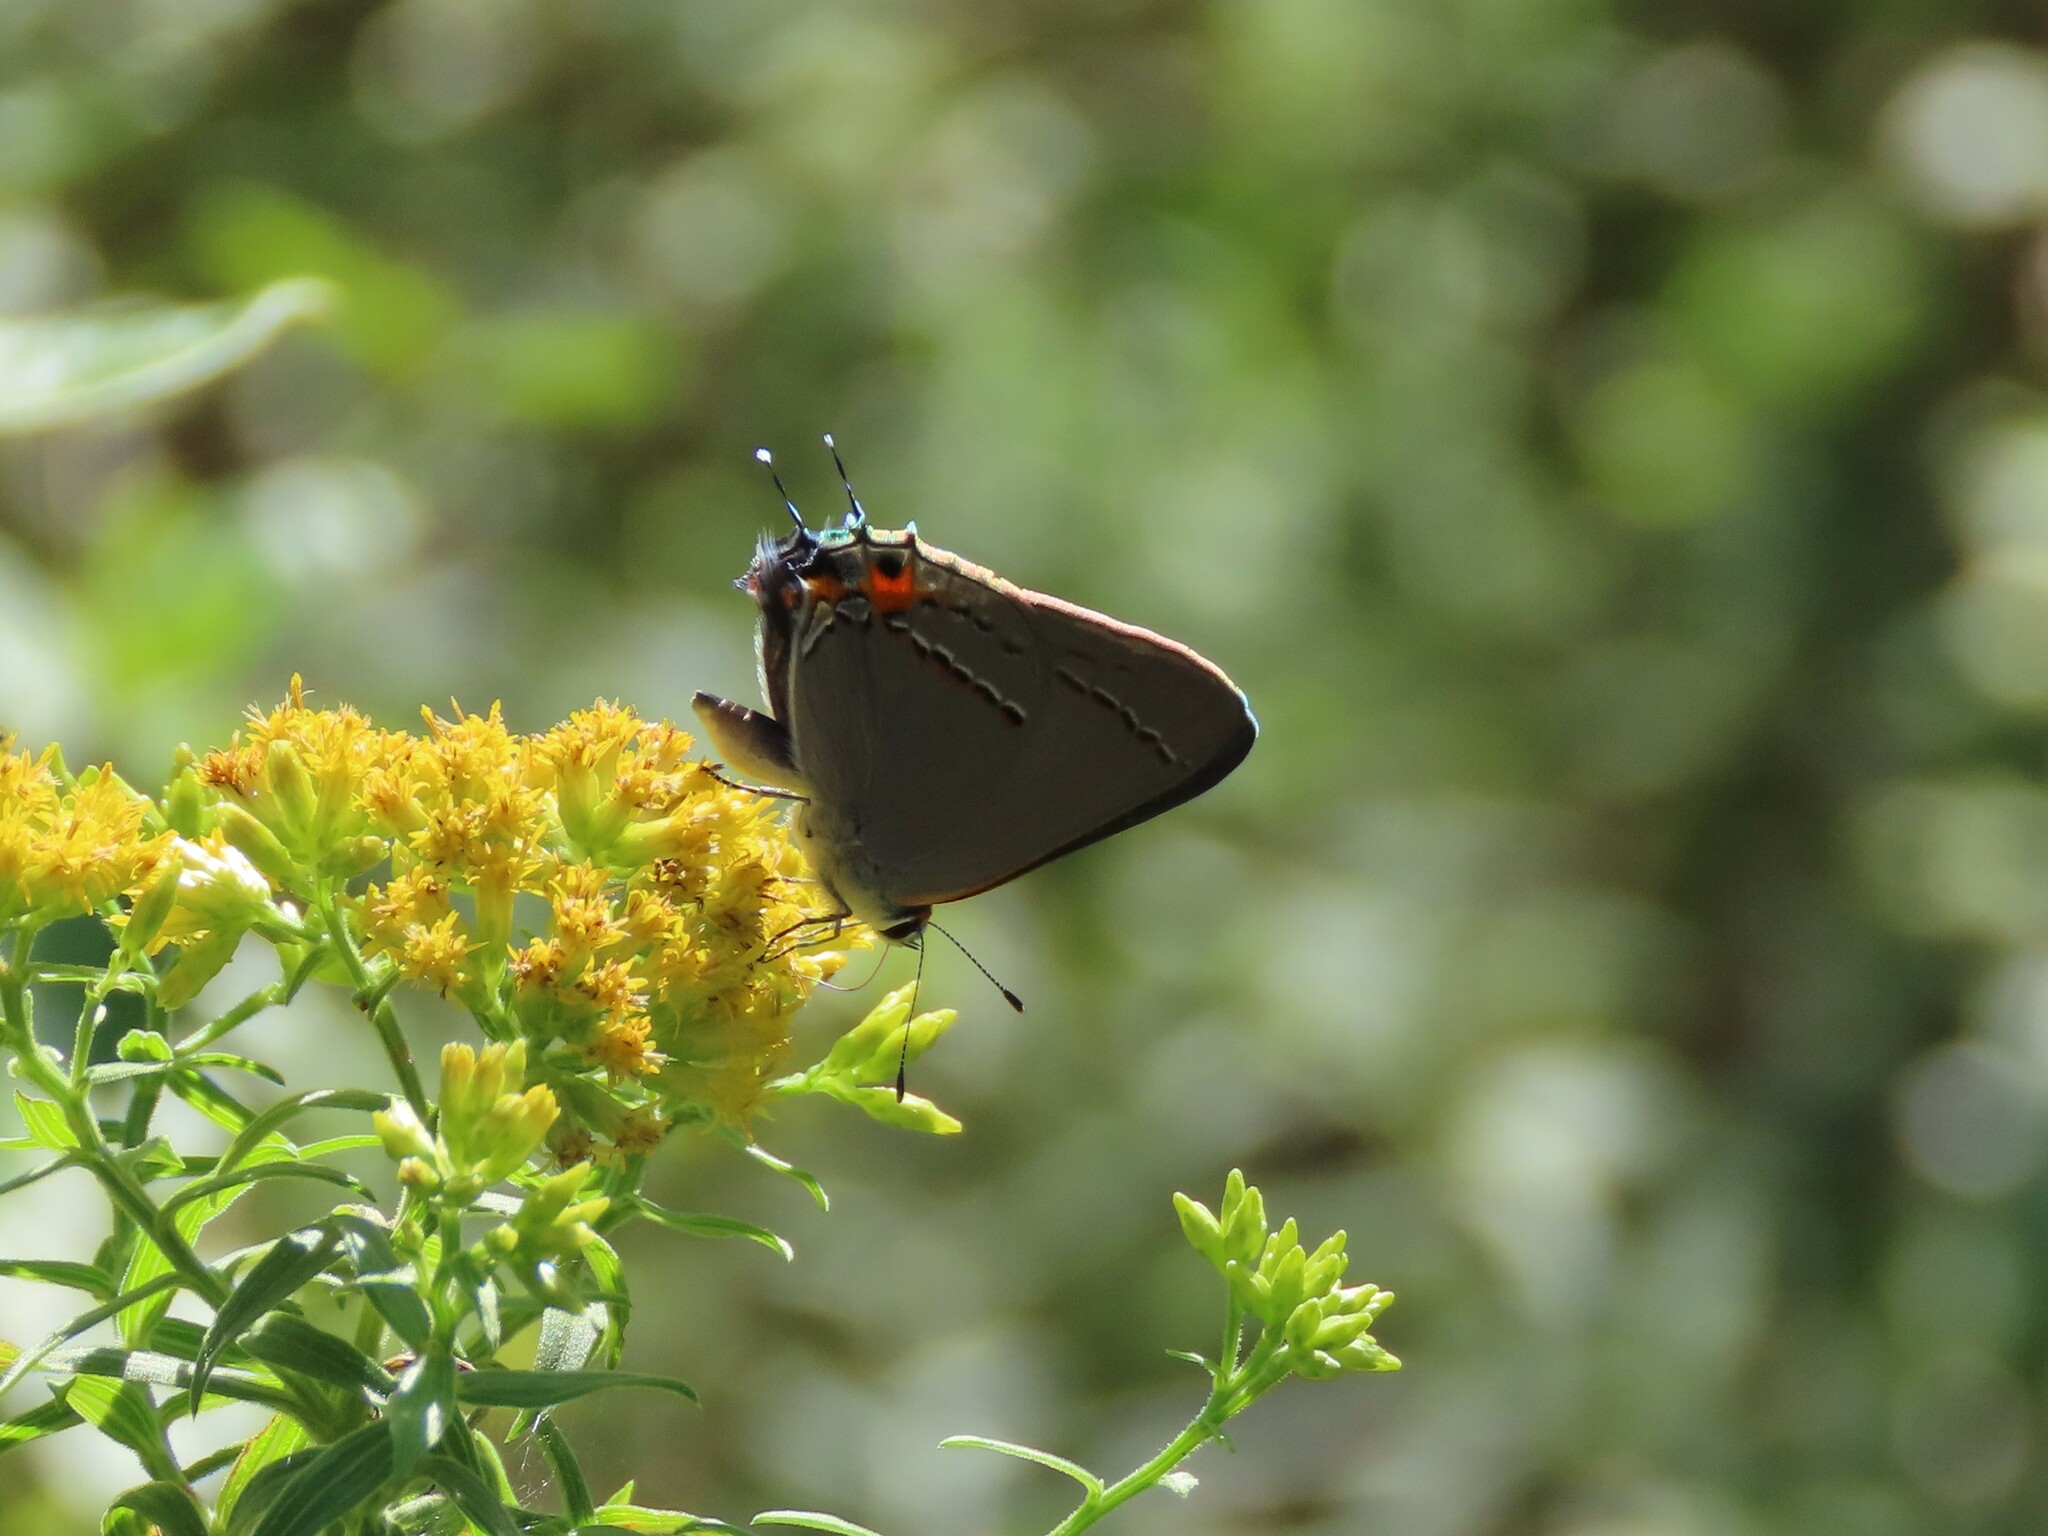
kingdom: Animalia
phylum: Arthropoda
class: Insecta
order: Lepidoptera
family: Lycaenidae
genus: Strymon
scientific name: Strymon melinus
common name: Gray hairstreak
